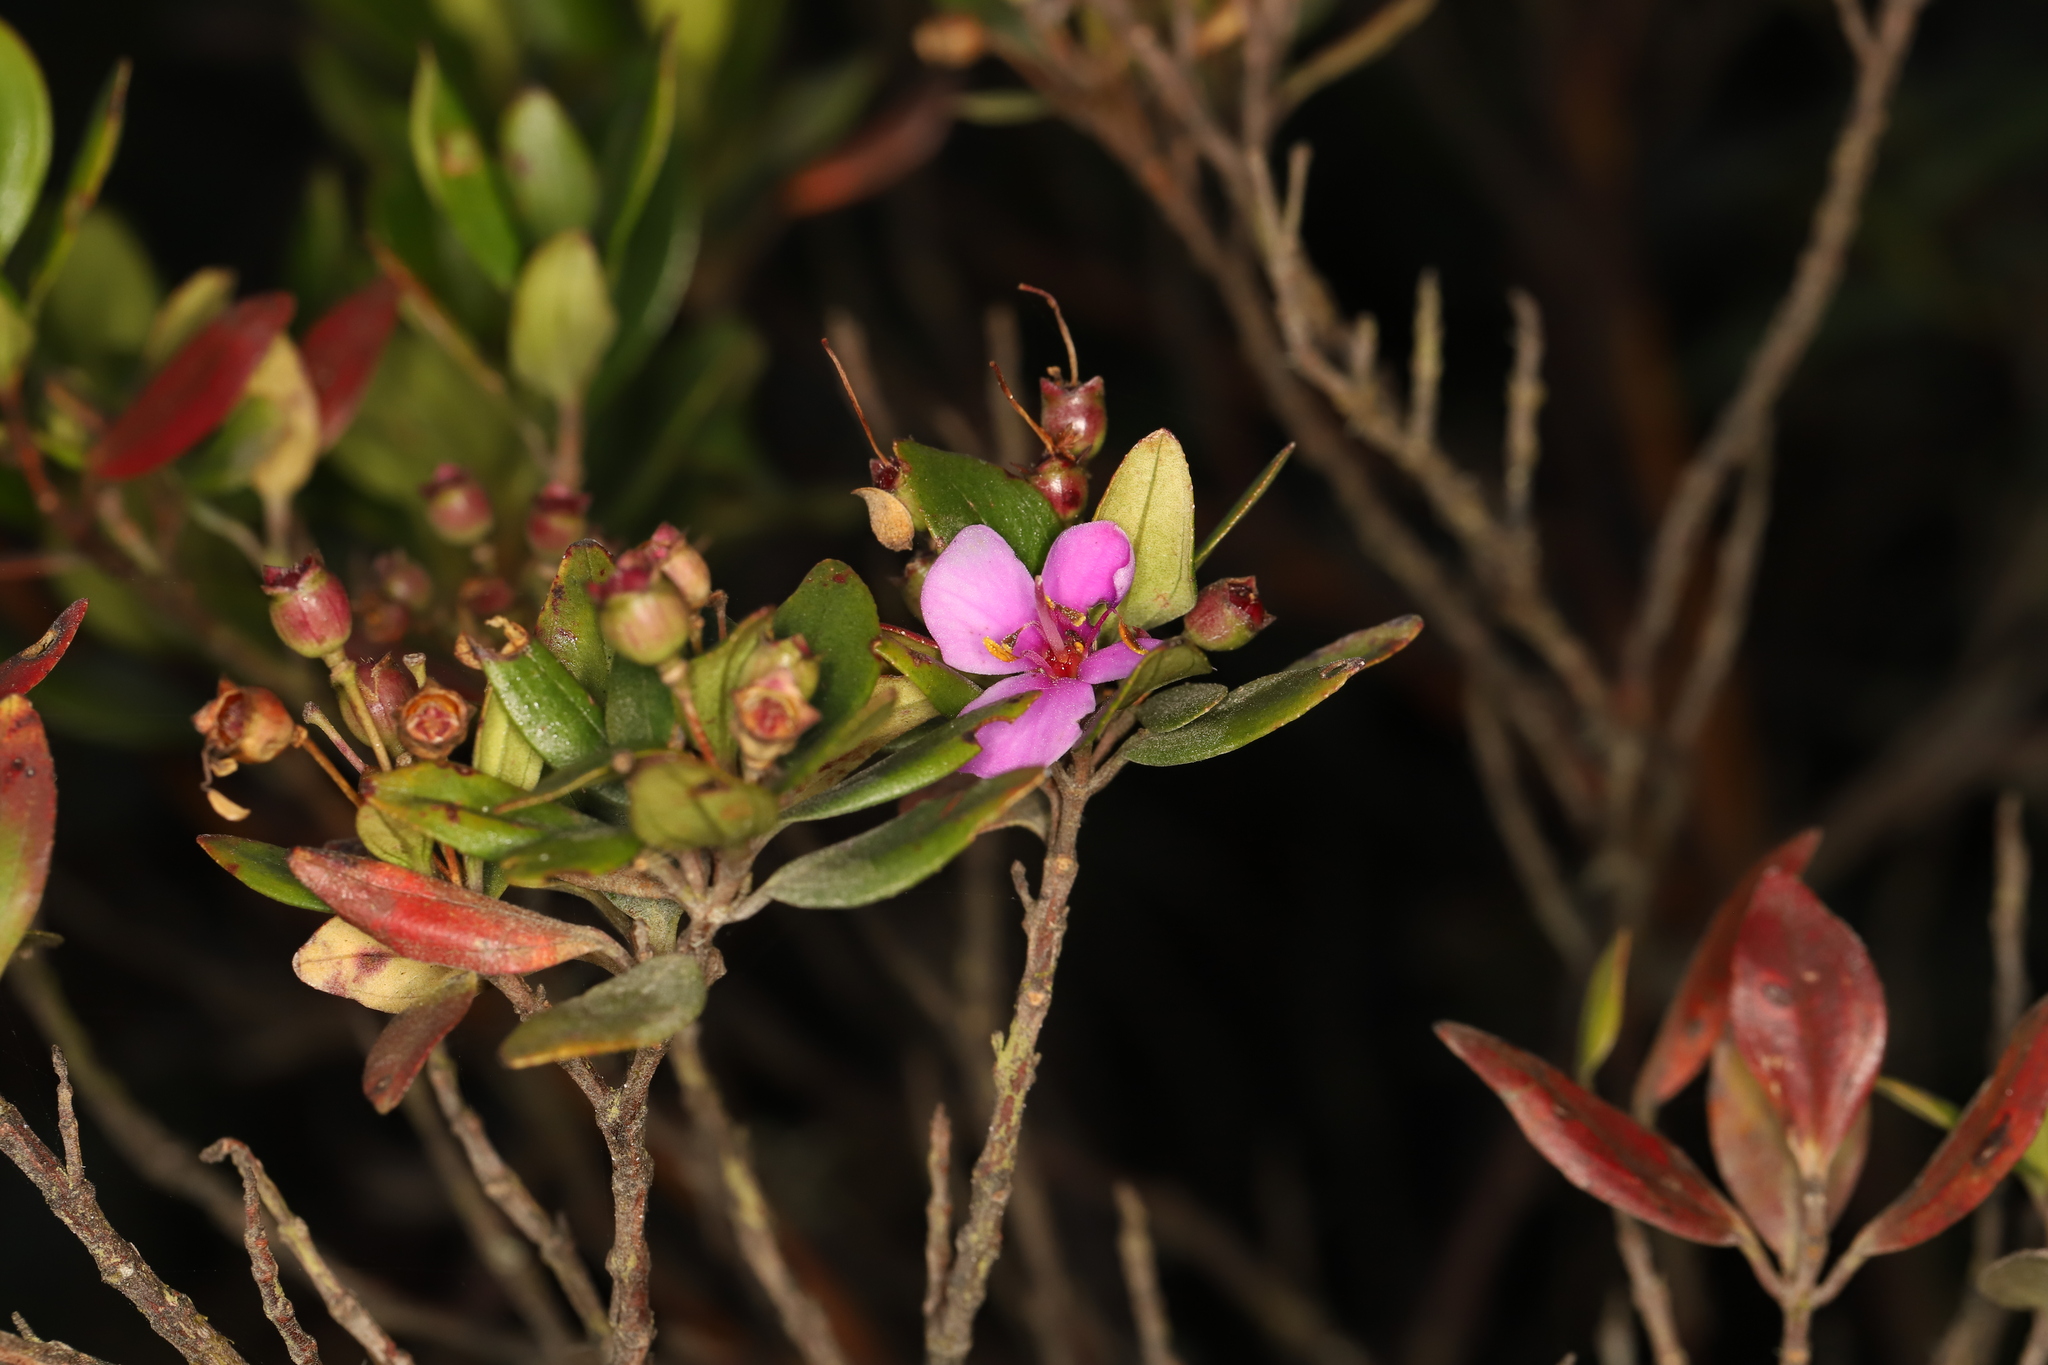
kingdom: Plantae
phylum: Tracheophyta
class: Magnoliopsida
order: Myrtales
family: Melastomataceae
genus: Bucquetia
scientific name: Bucquetia glutinosa
